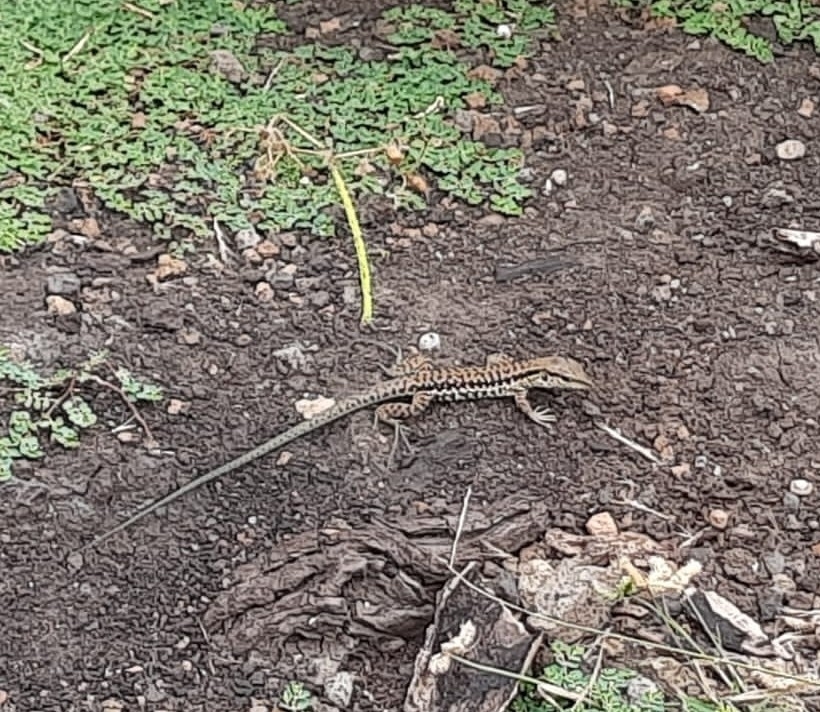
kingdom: Animalia
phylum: Chordata
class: Squamata
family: Teiidae
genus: Ameiva
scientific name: Ameiva tobagana
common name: Antillean ameiva
